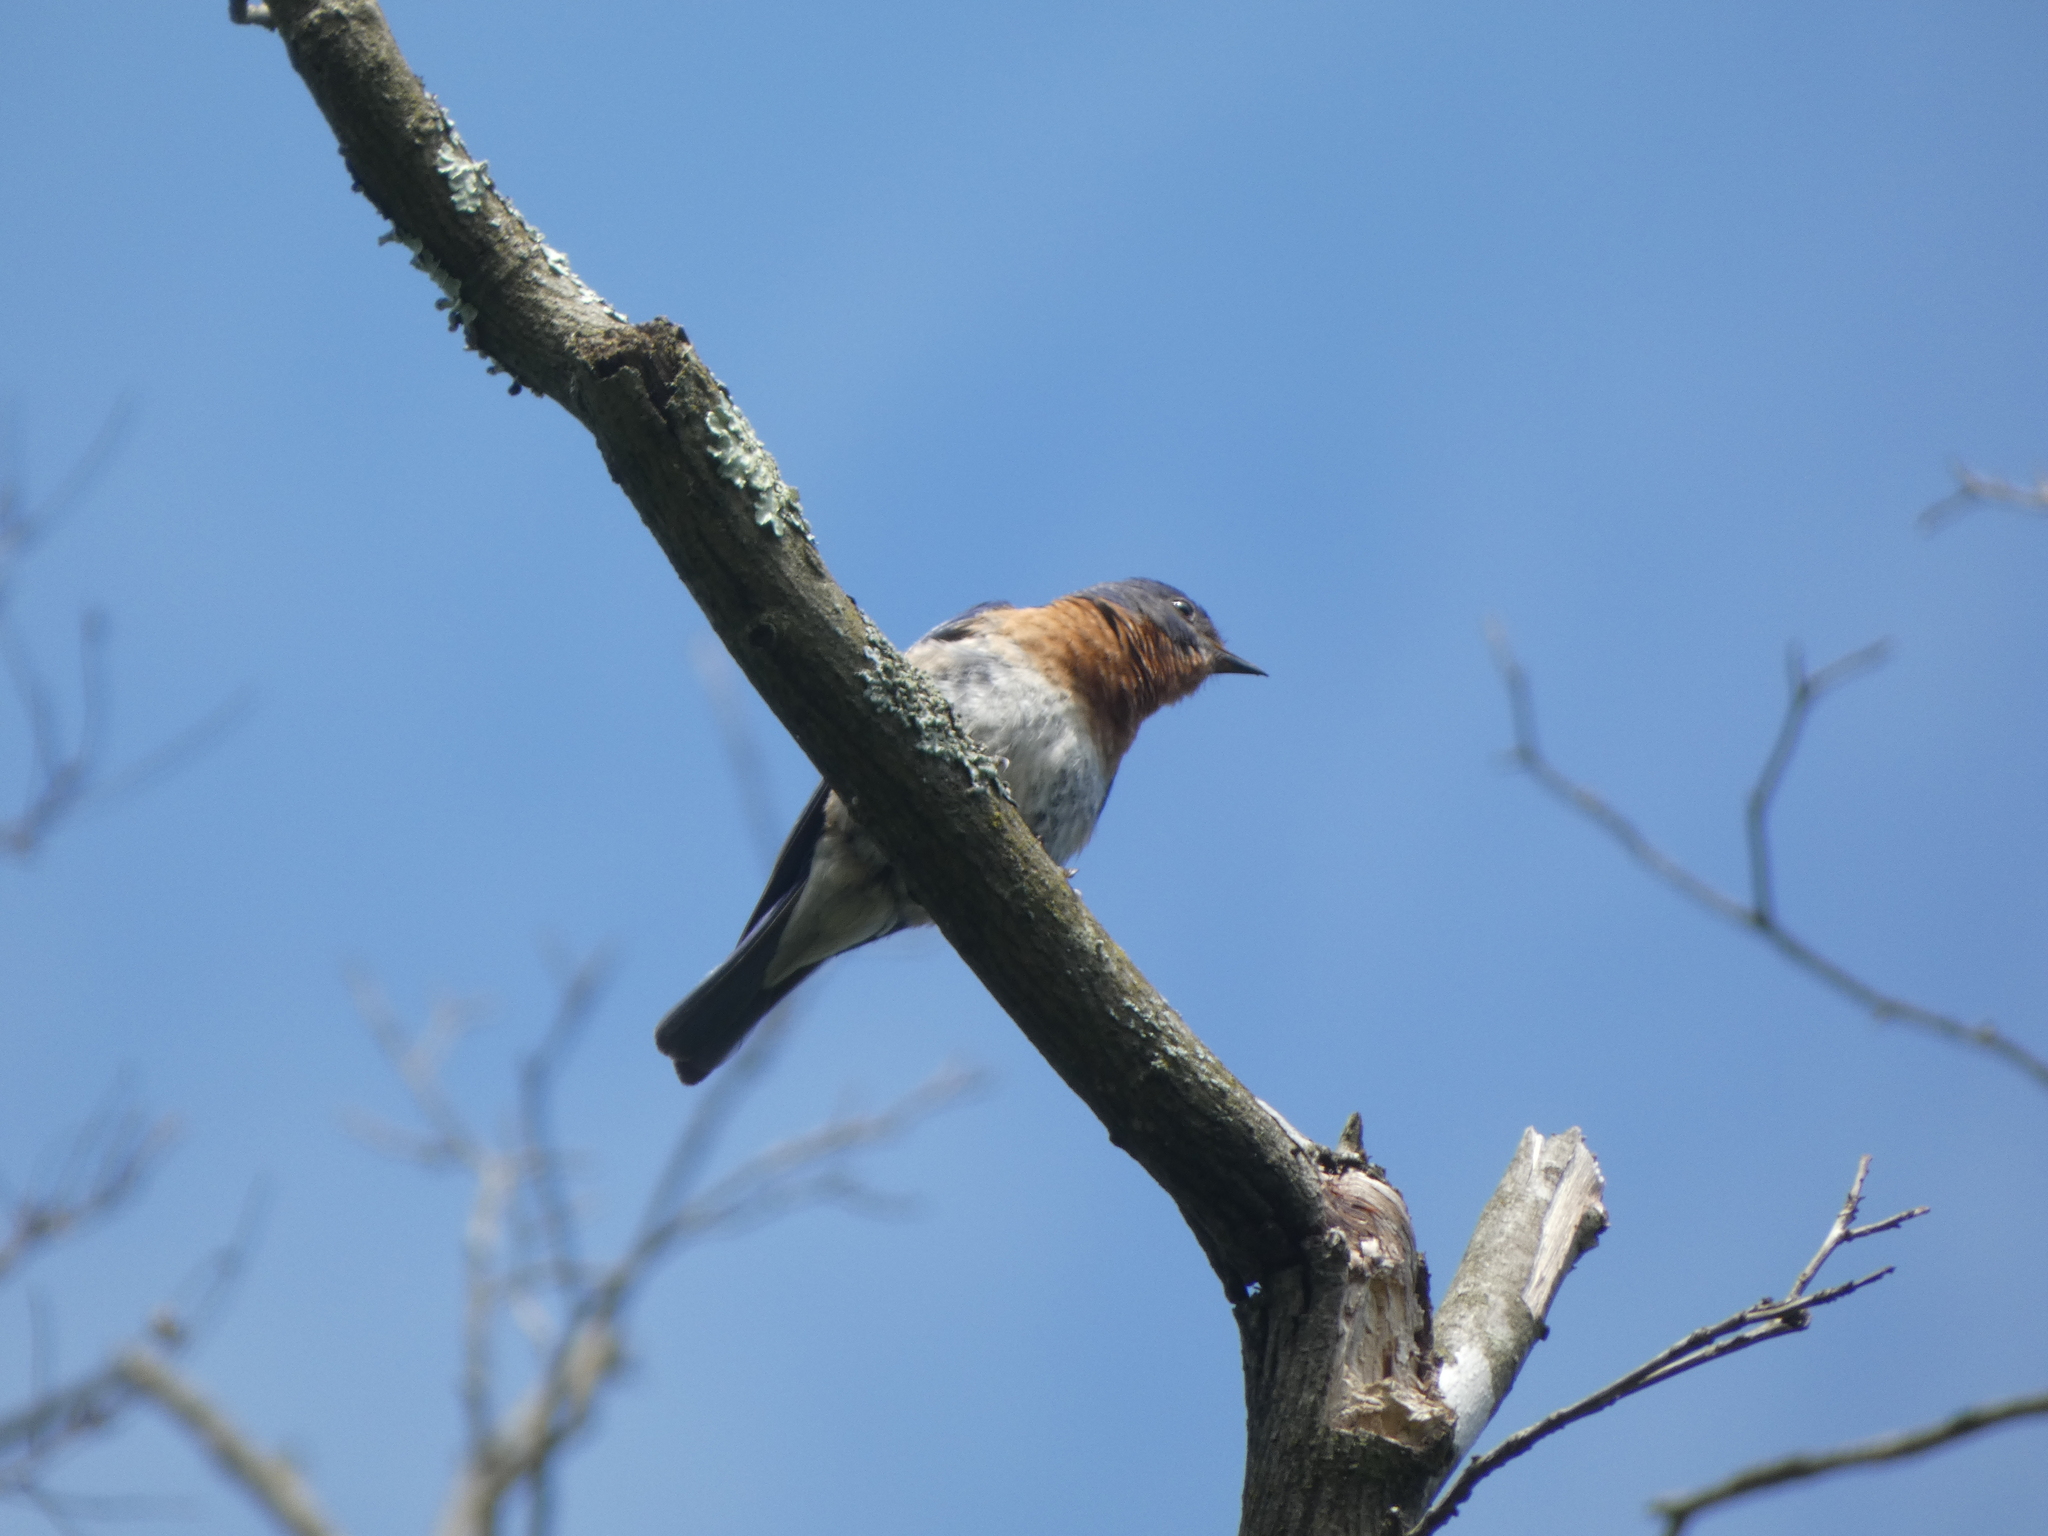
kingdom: Animalia
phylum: Chordata
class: Aves
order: Passeriformes
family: Turdidae
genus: Sialia
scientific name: Sialia sialis
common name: Eastern bluebird
